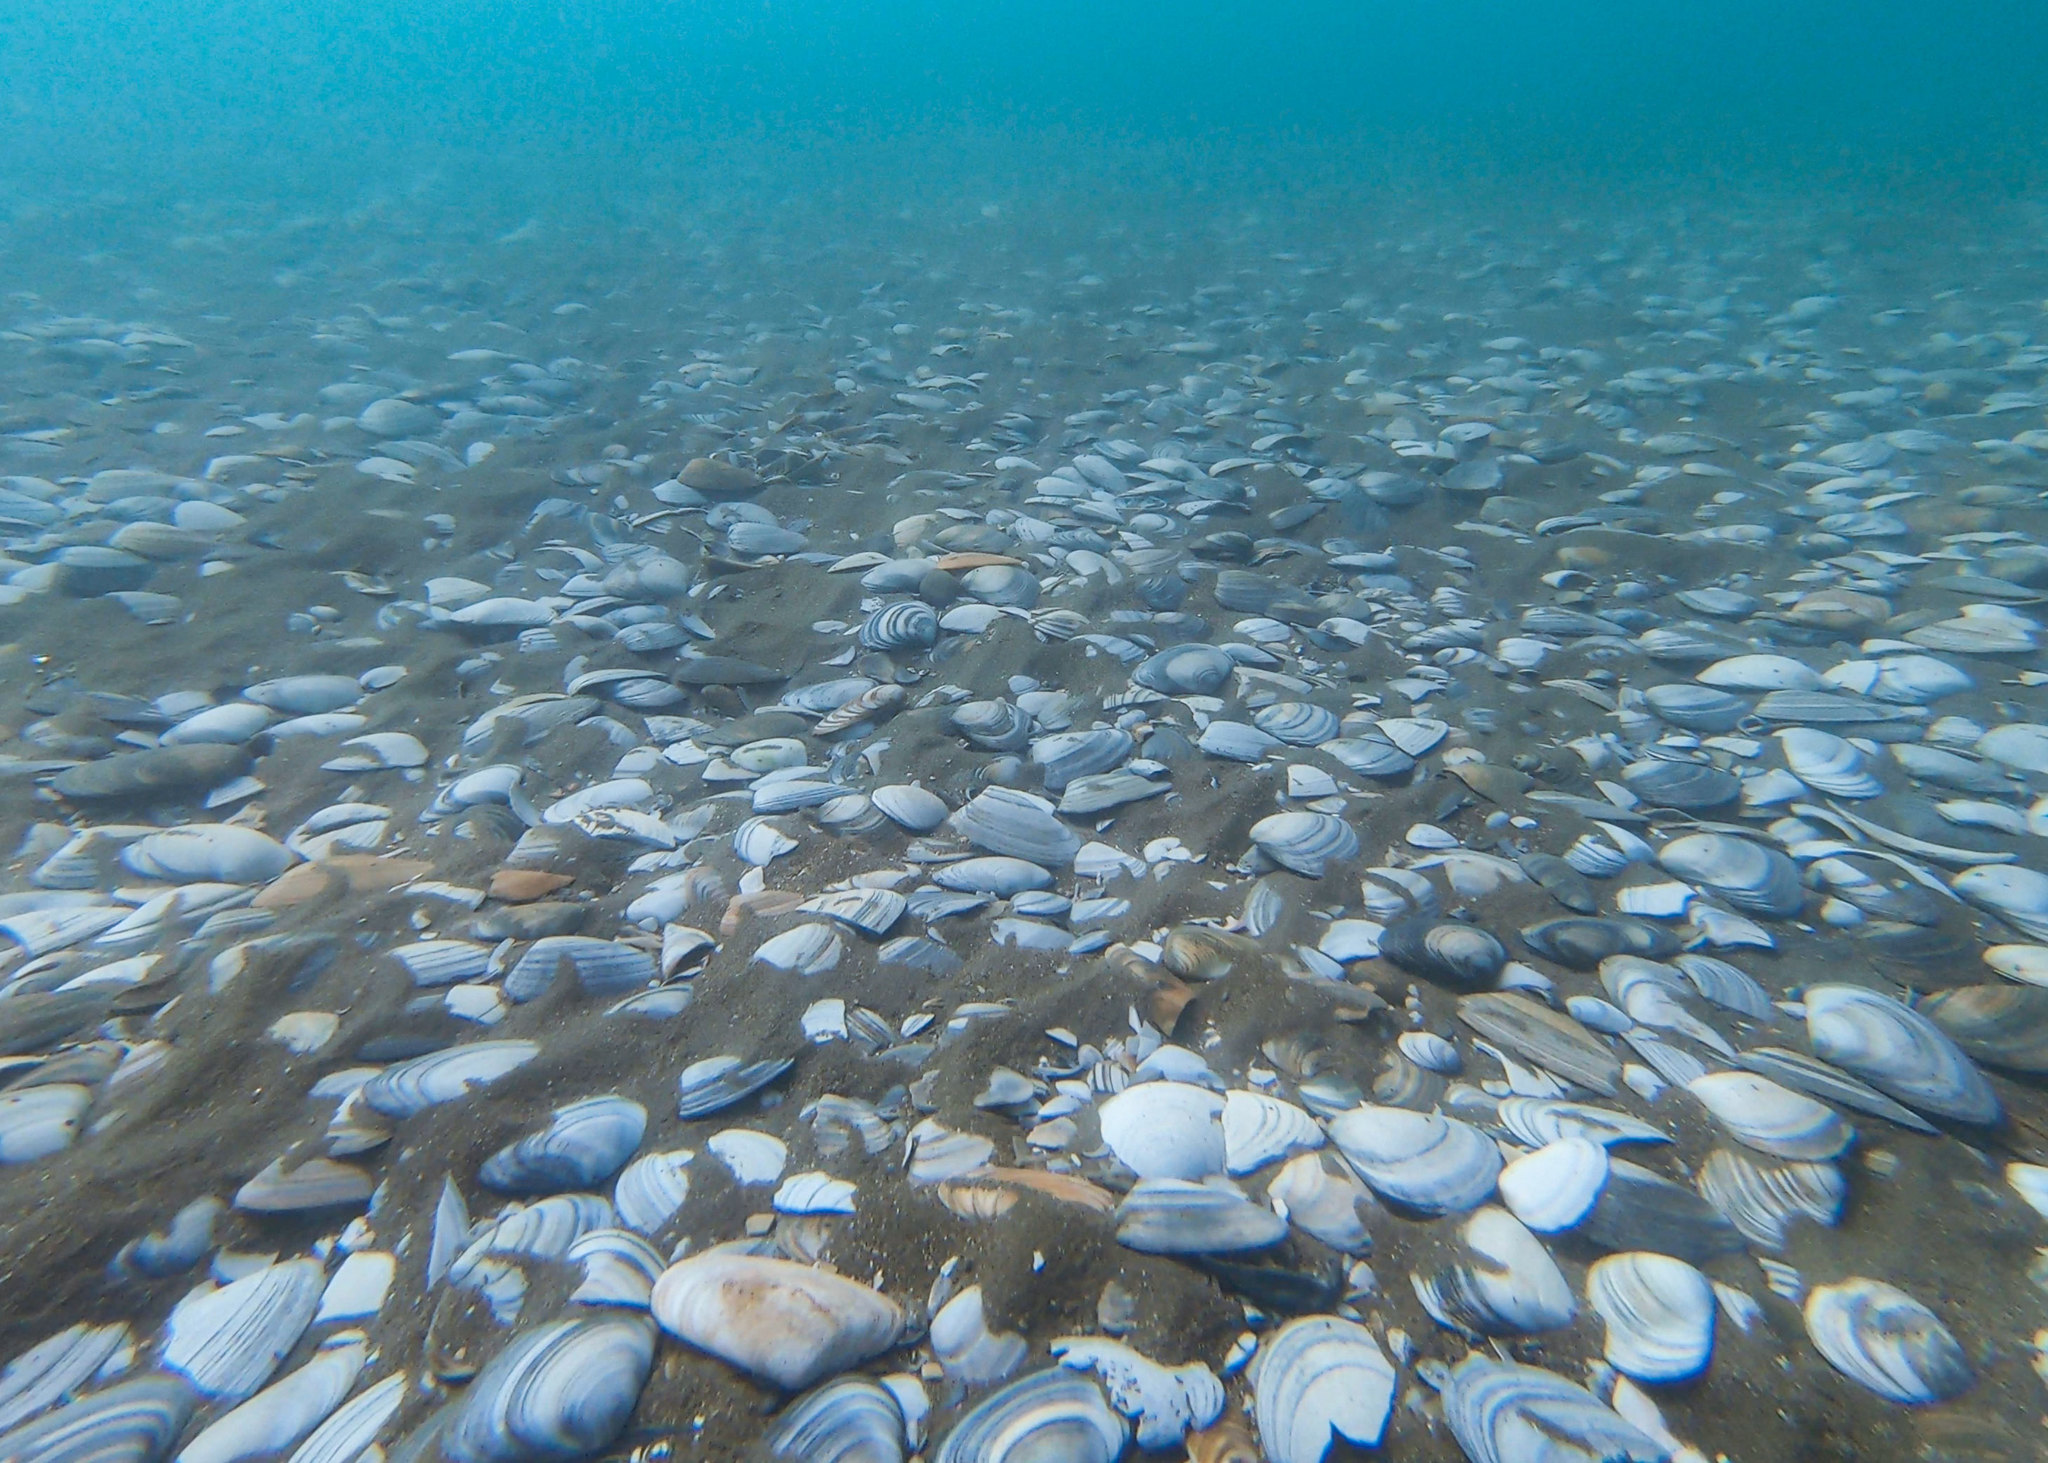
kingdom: Animalia
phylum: Mollusca
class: Bivalvia
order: Venerida
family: Mesodesmatidae
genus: Paphies
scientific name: Paphies subtriangulata
